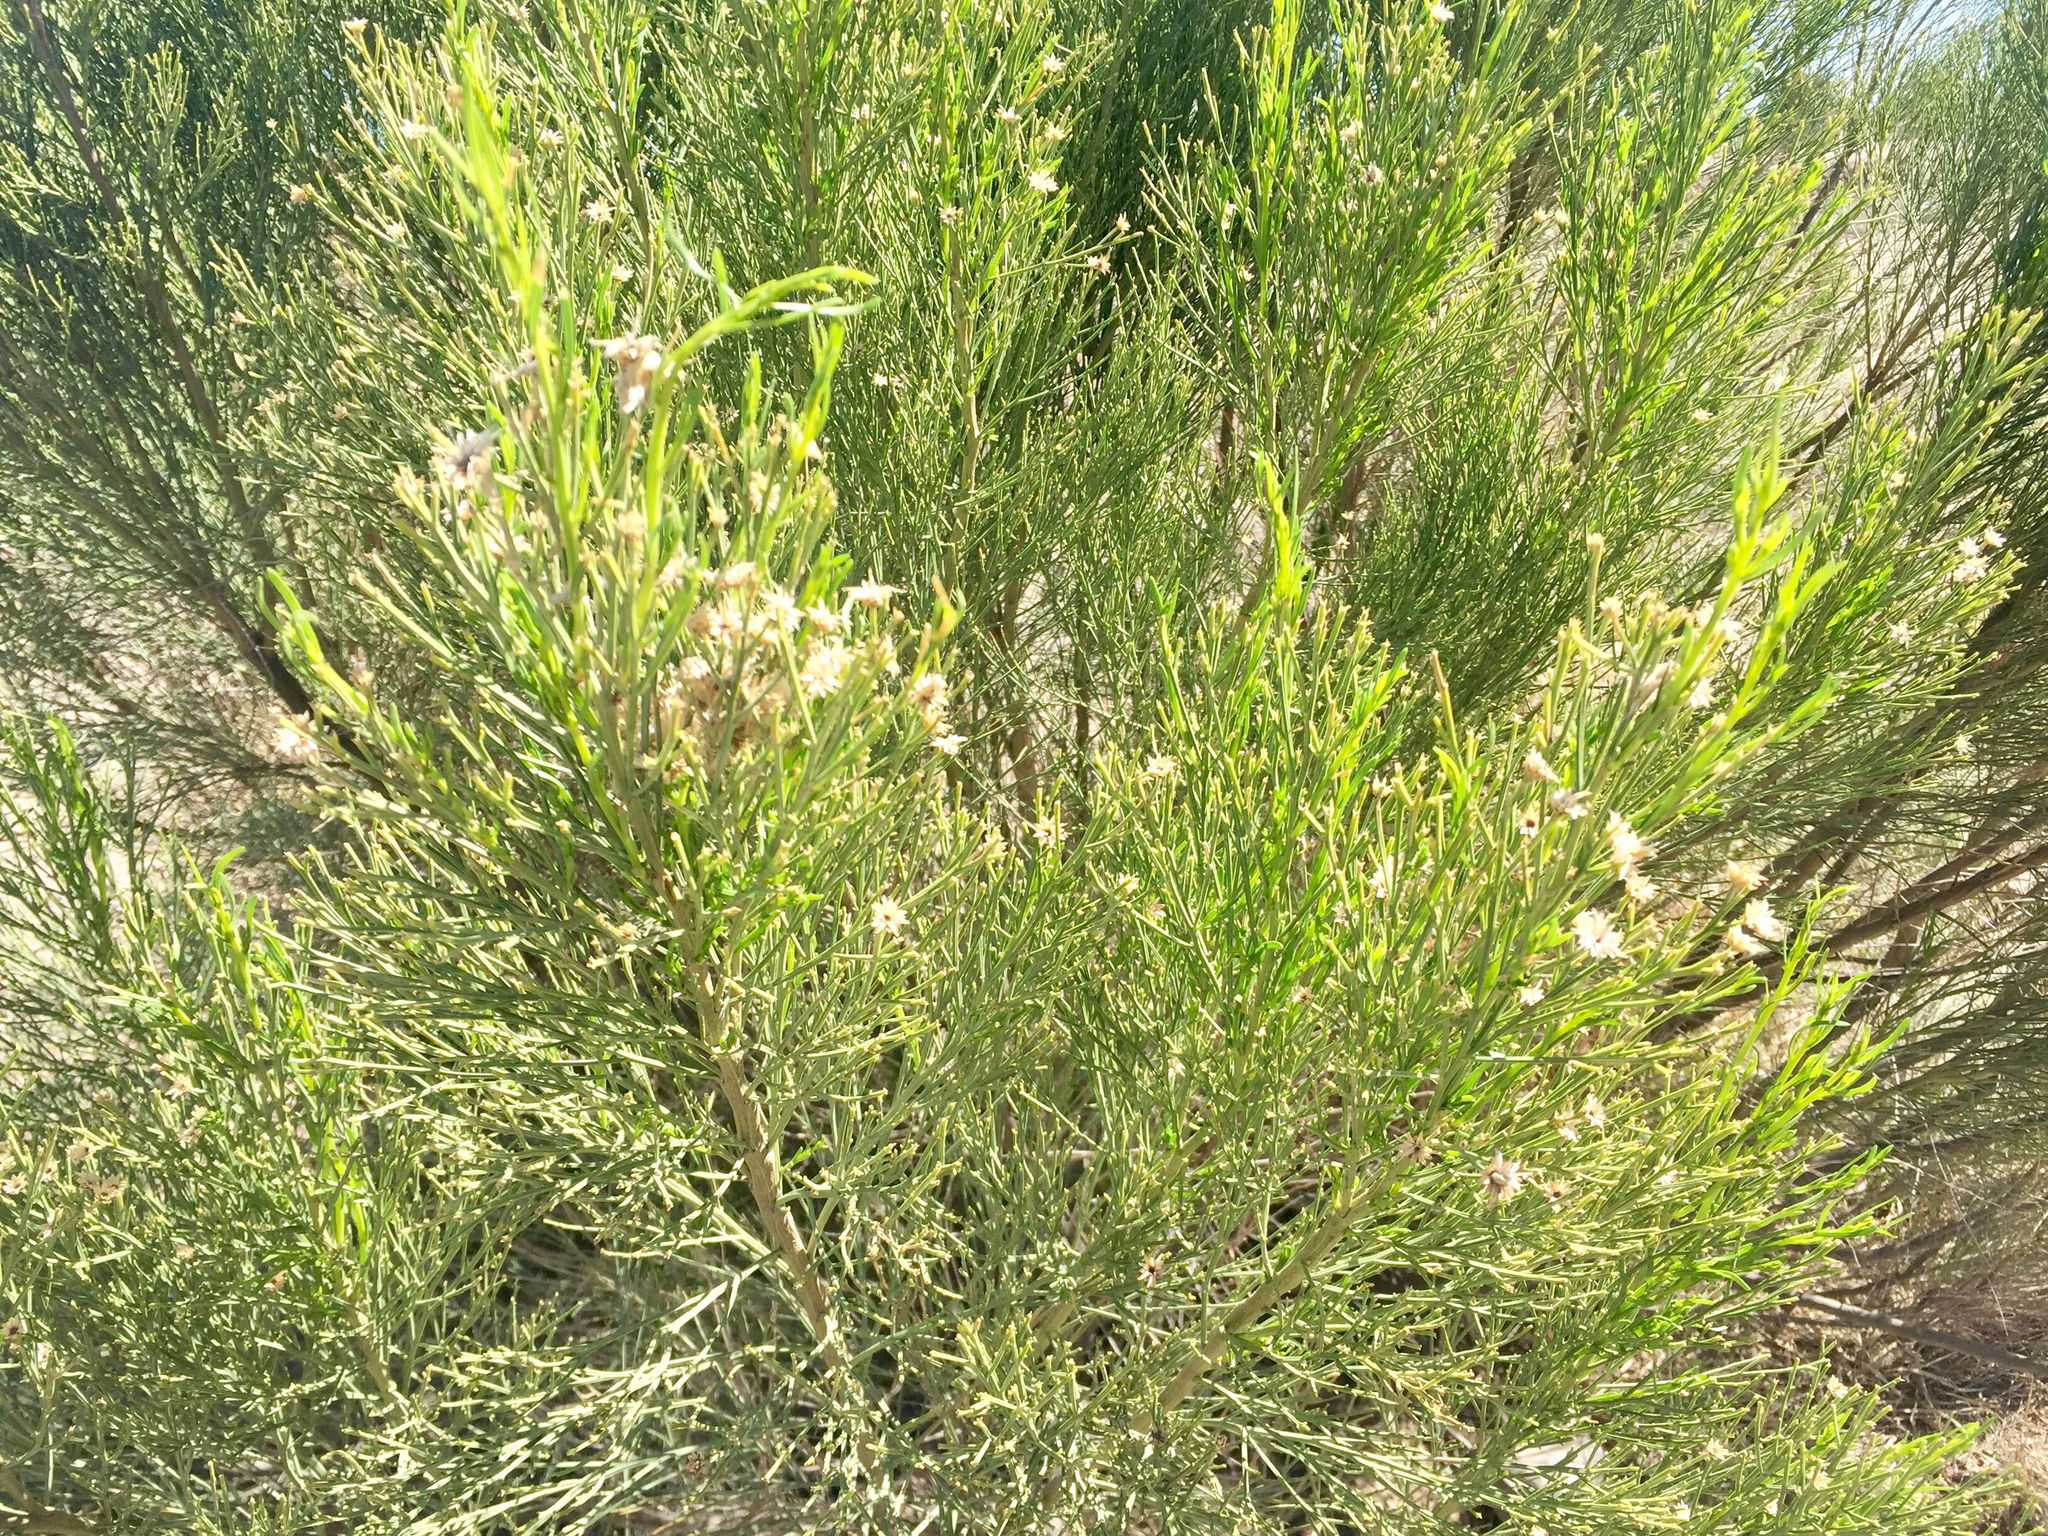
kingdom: Plantae
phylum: Tracheophyta
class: Magnoliopsida
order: Asterales
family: Asteraceae
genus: Baccharis
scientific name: Baccharis sarothroides
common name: Desert-broom
